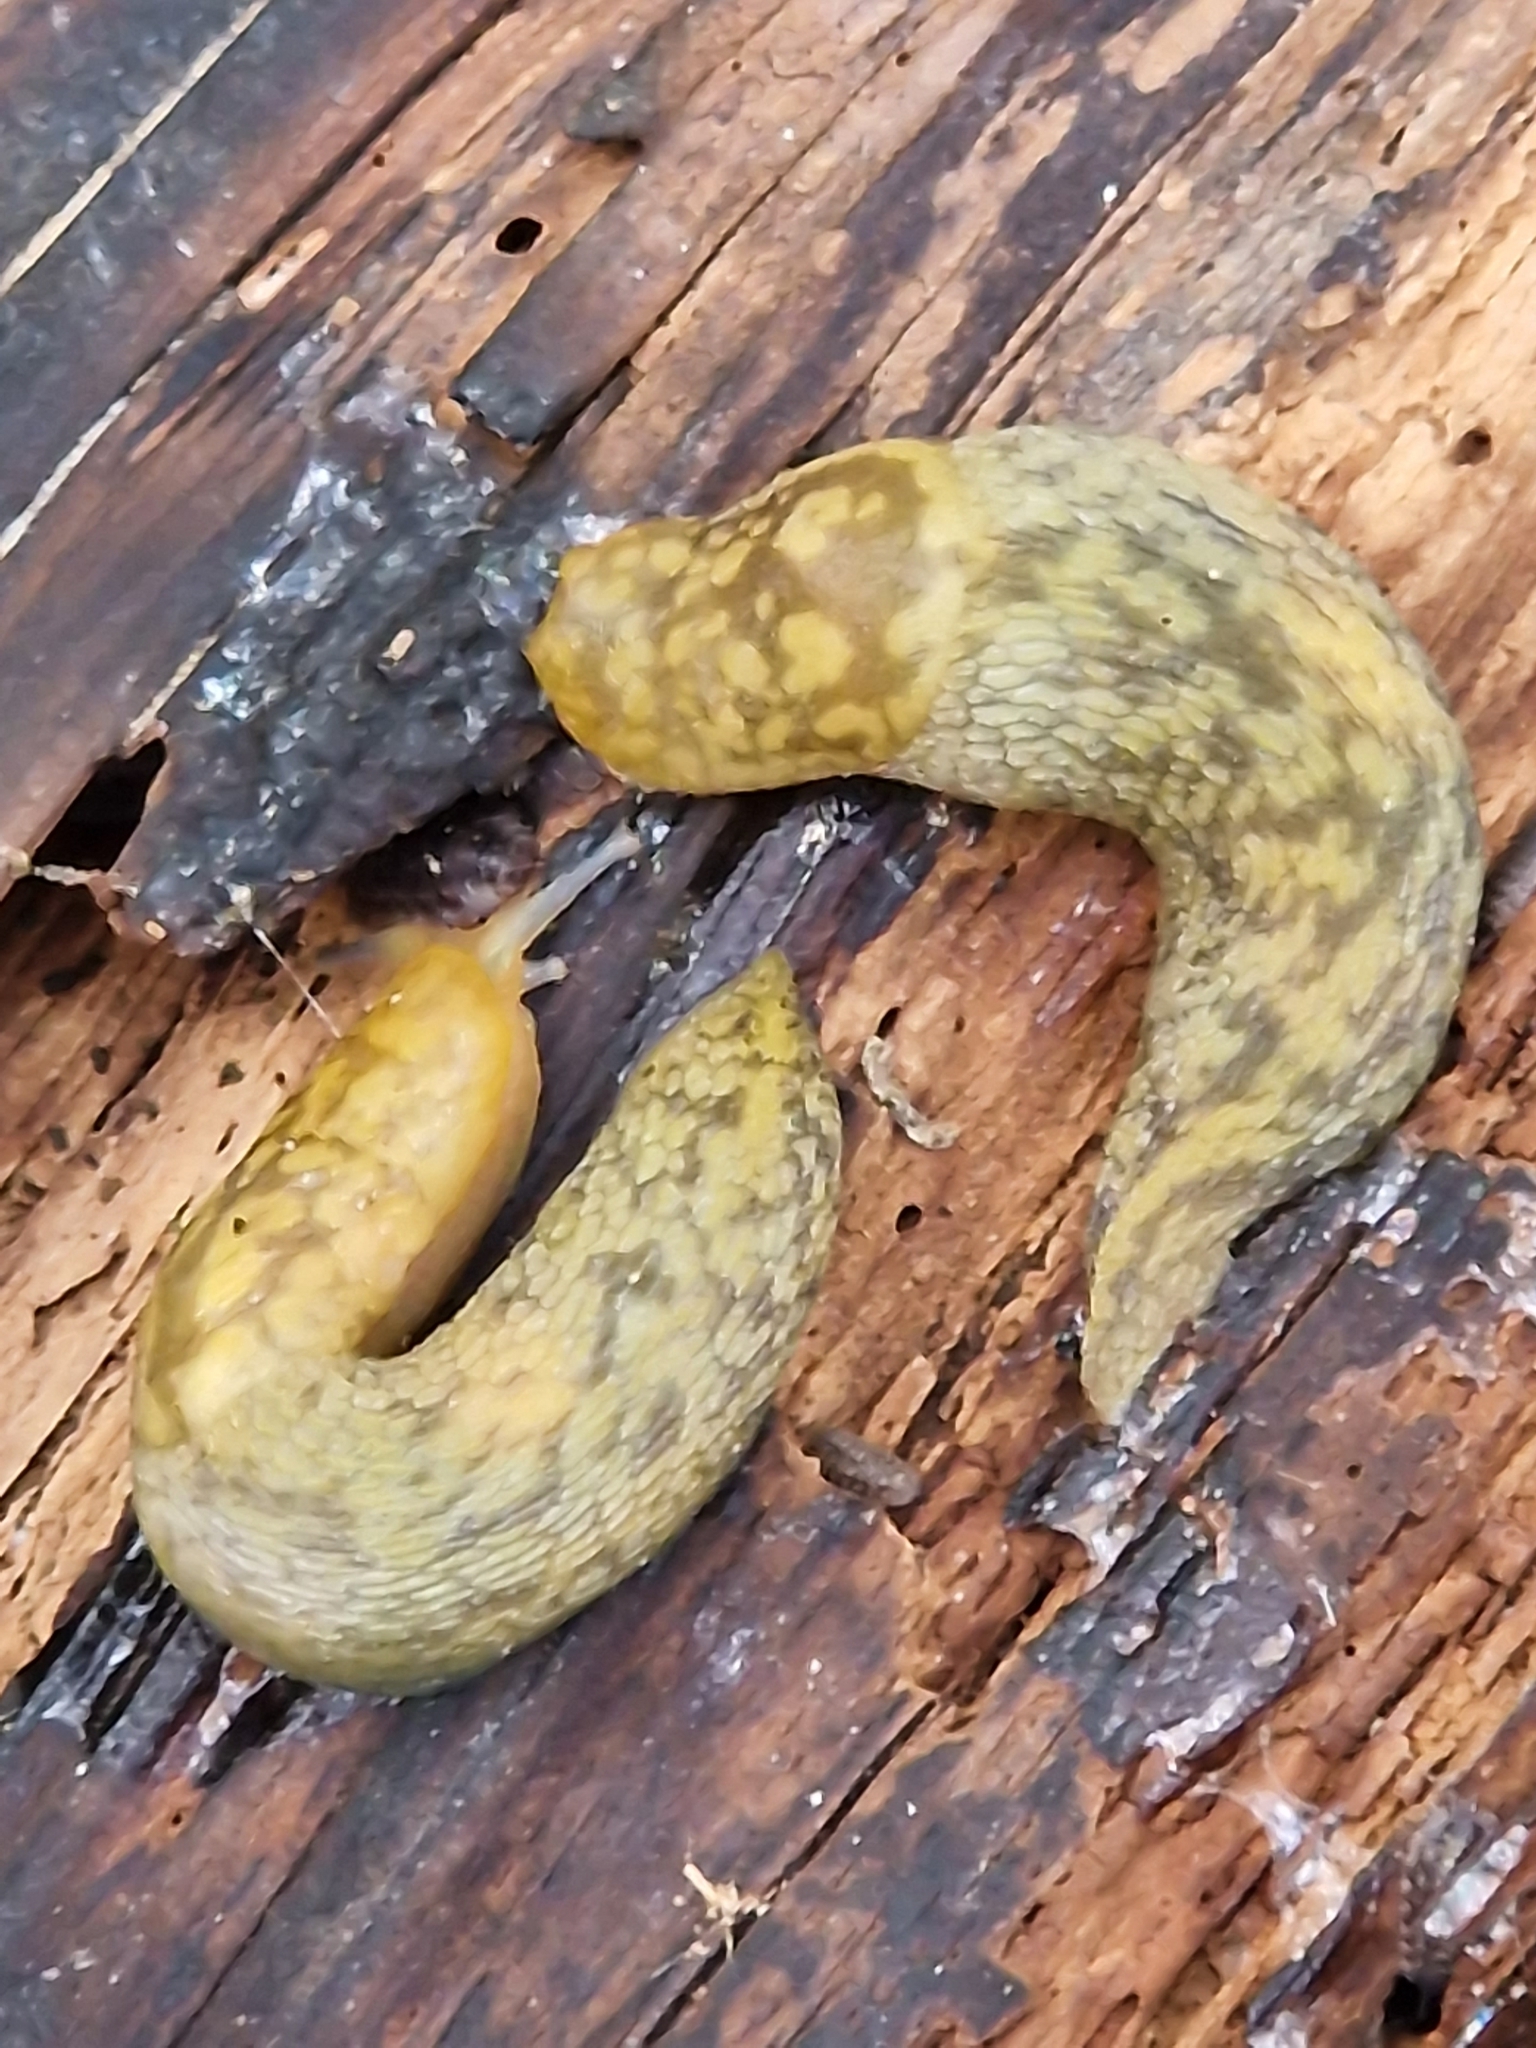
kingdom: Animalia
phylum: Mollusca
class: Gastropoda
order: Stylommatophora
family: Limacidae
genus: Limacus
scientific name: Limacus maculatus
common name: Irish yellow slug
